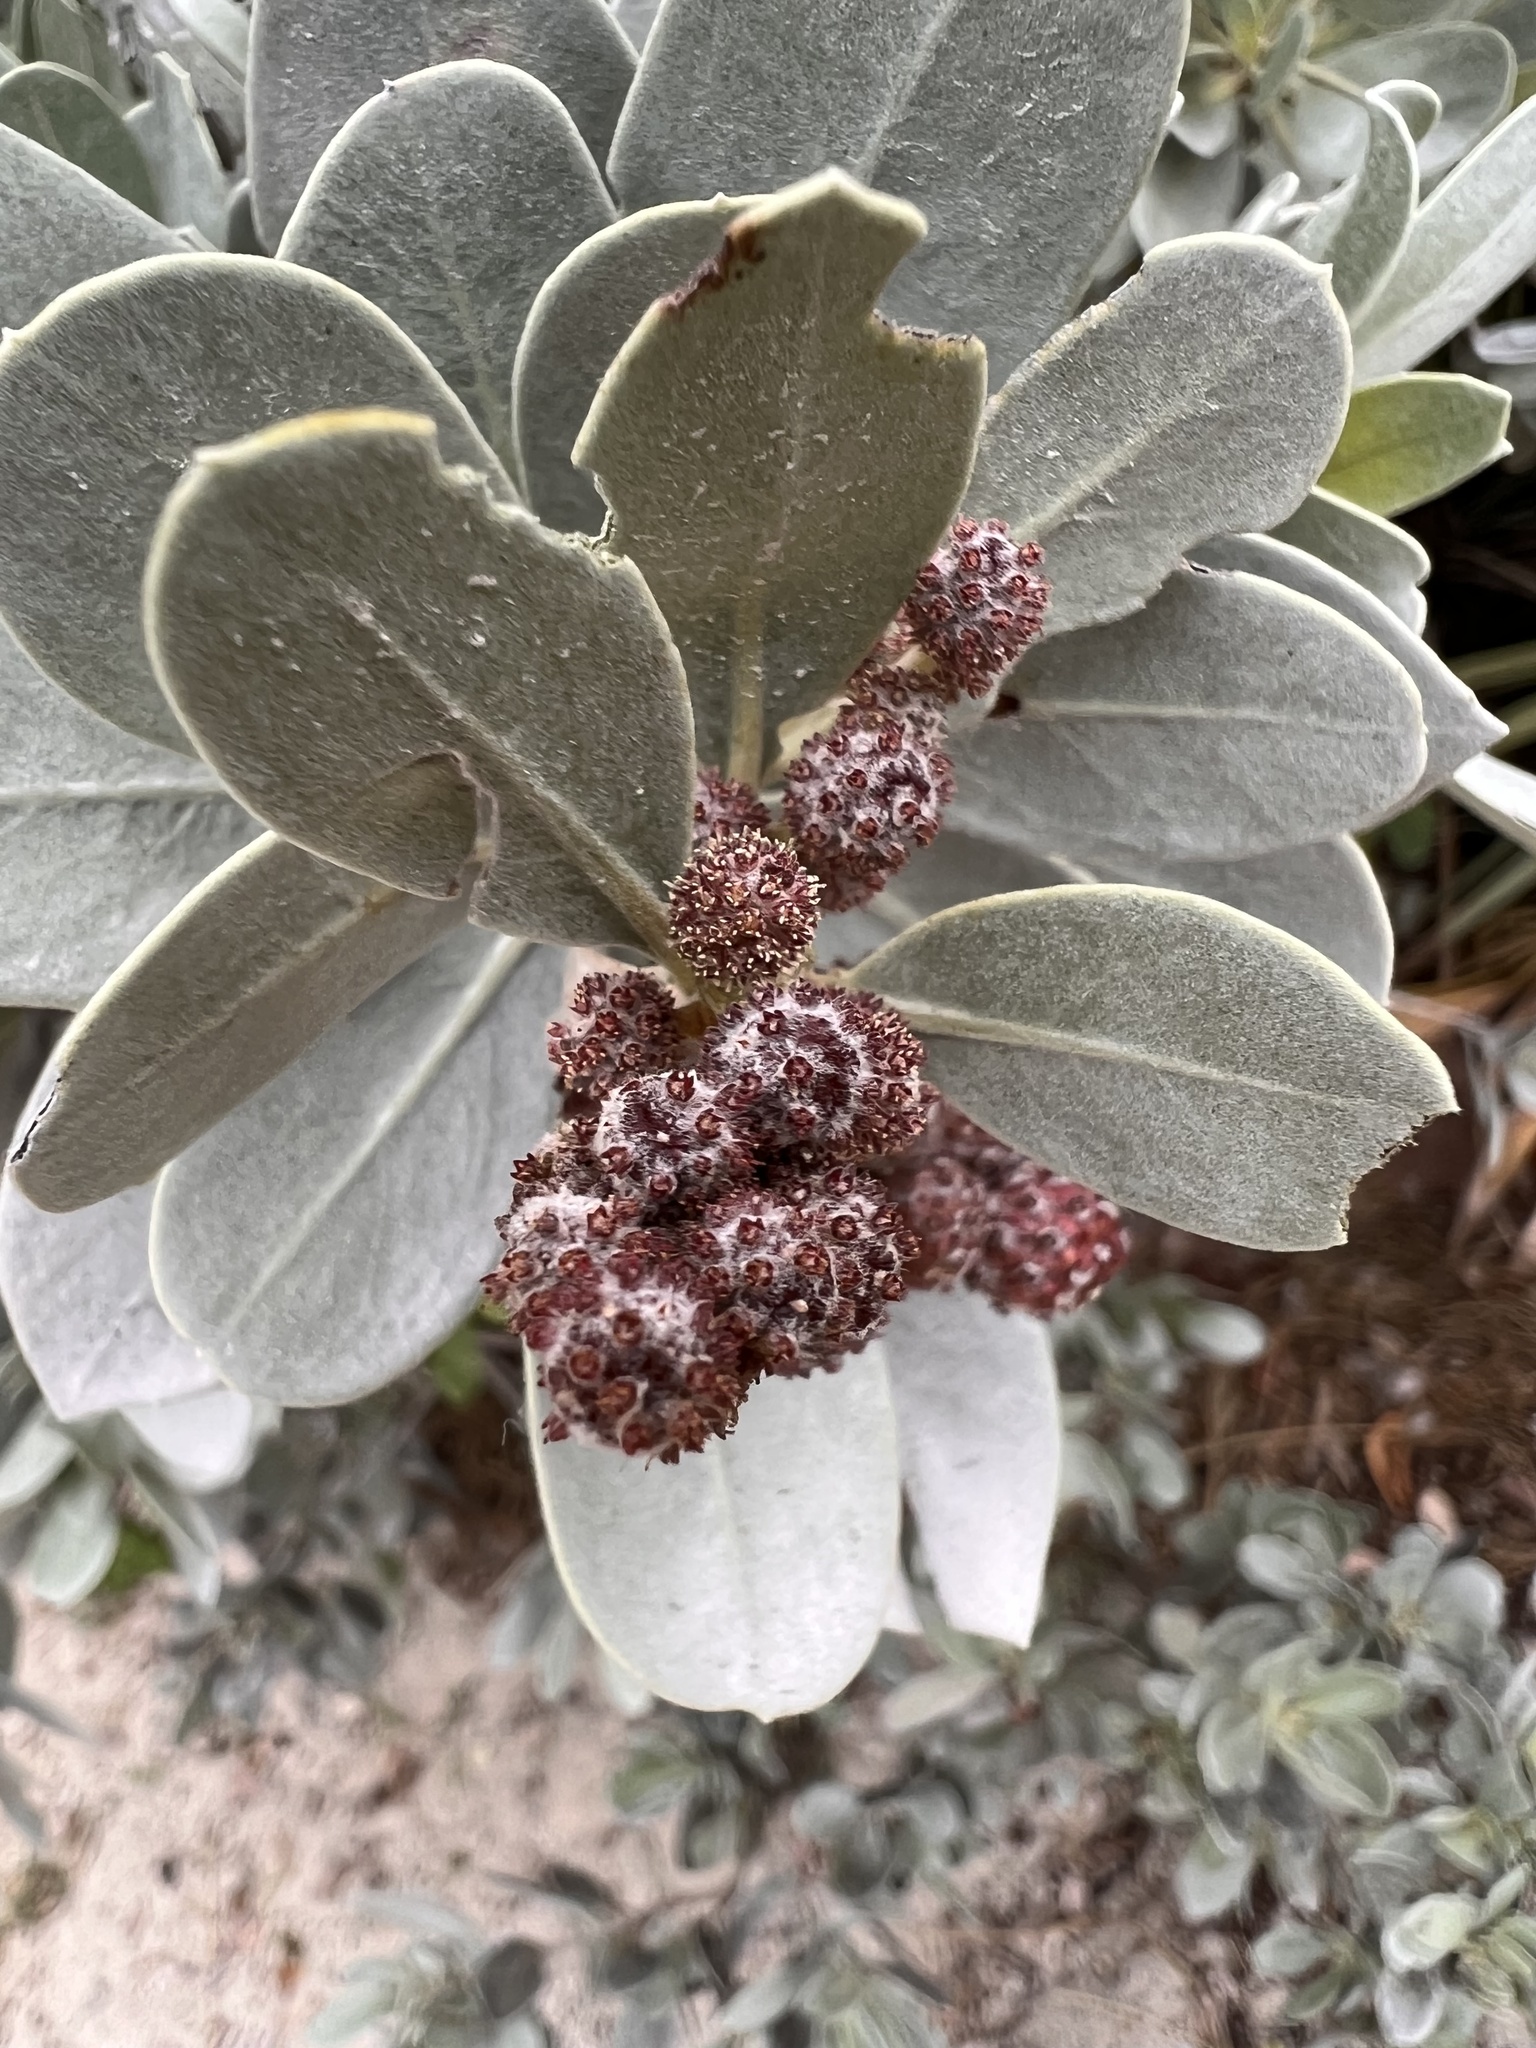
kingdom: Plantae
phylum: Tracheophyta
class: Magnoliopsida
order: Myrtales
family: Combretaceae
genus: Conocarpus
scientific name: Conocarpus erectus
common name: Button mangrove
